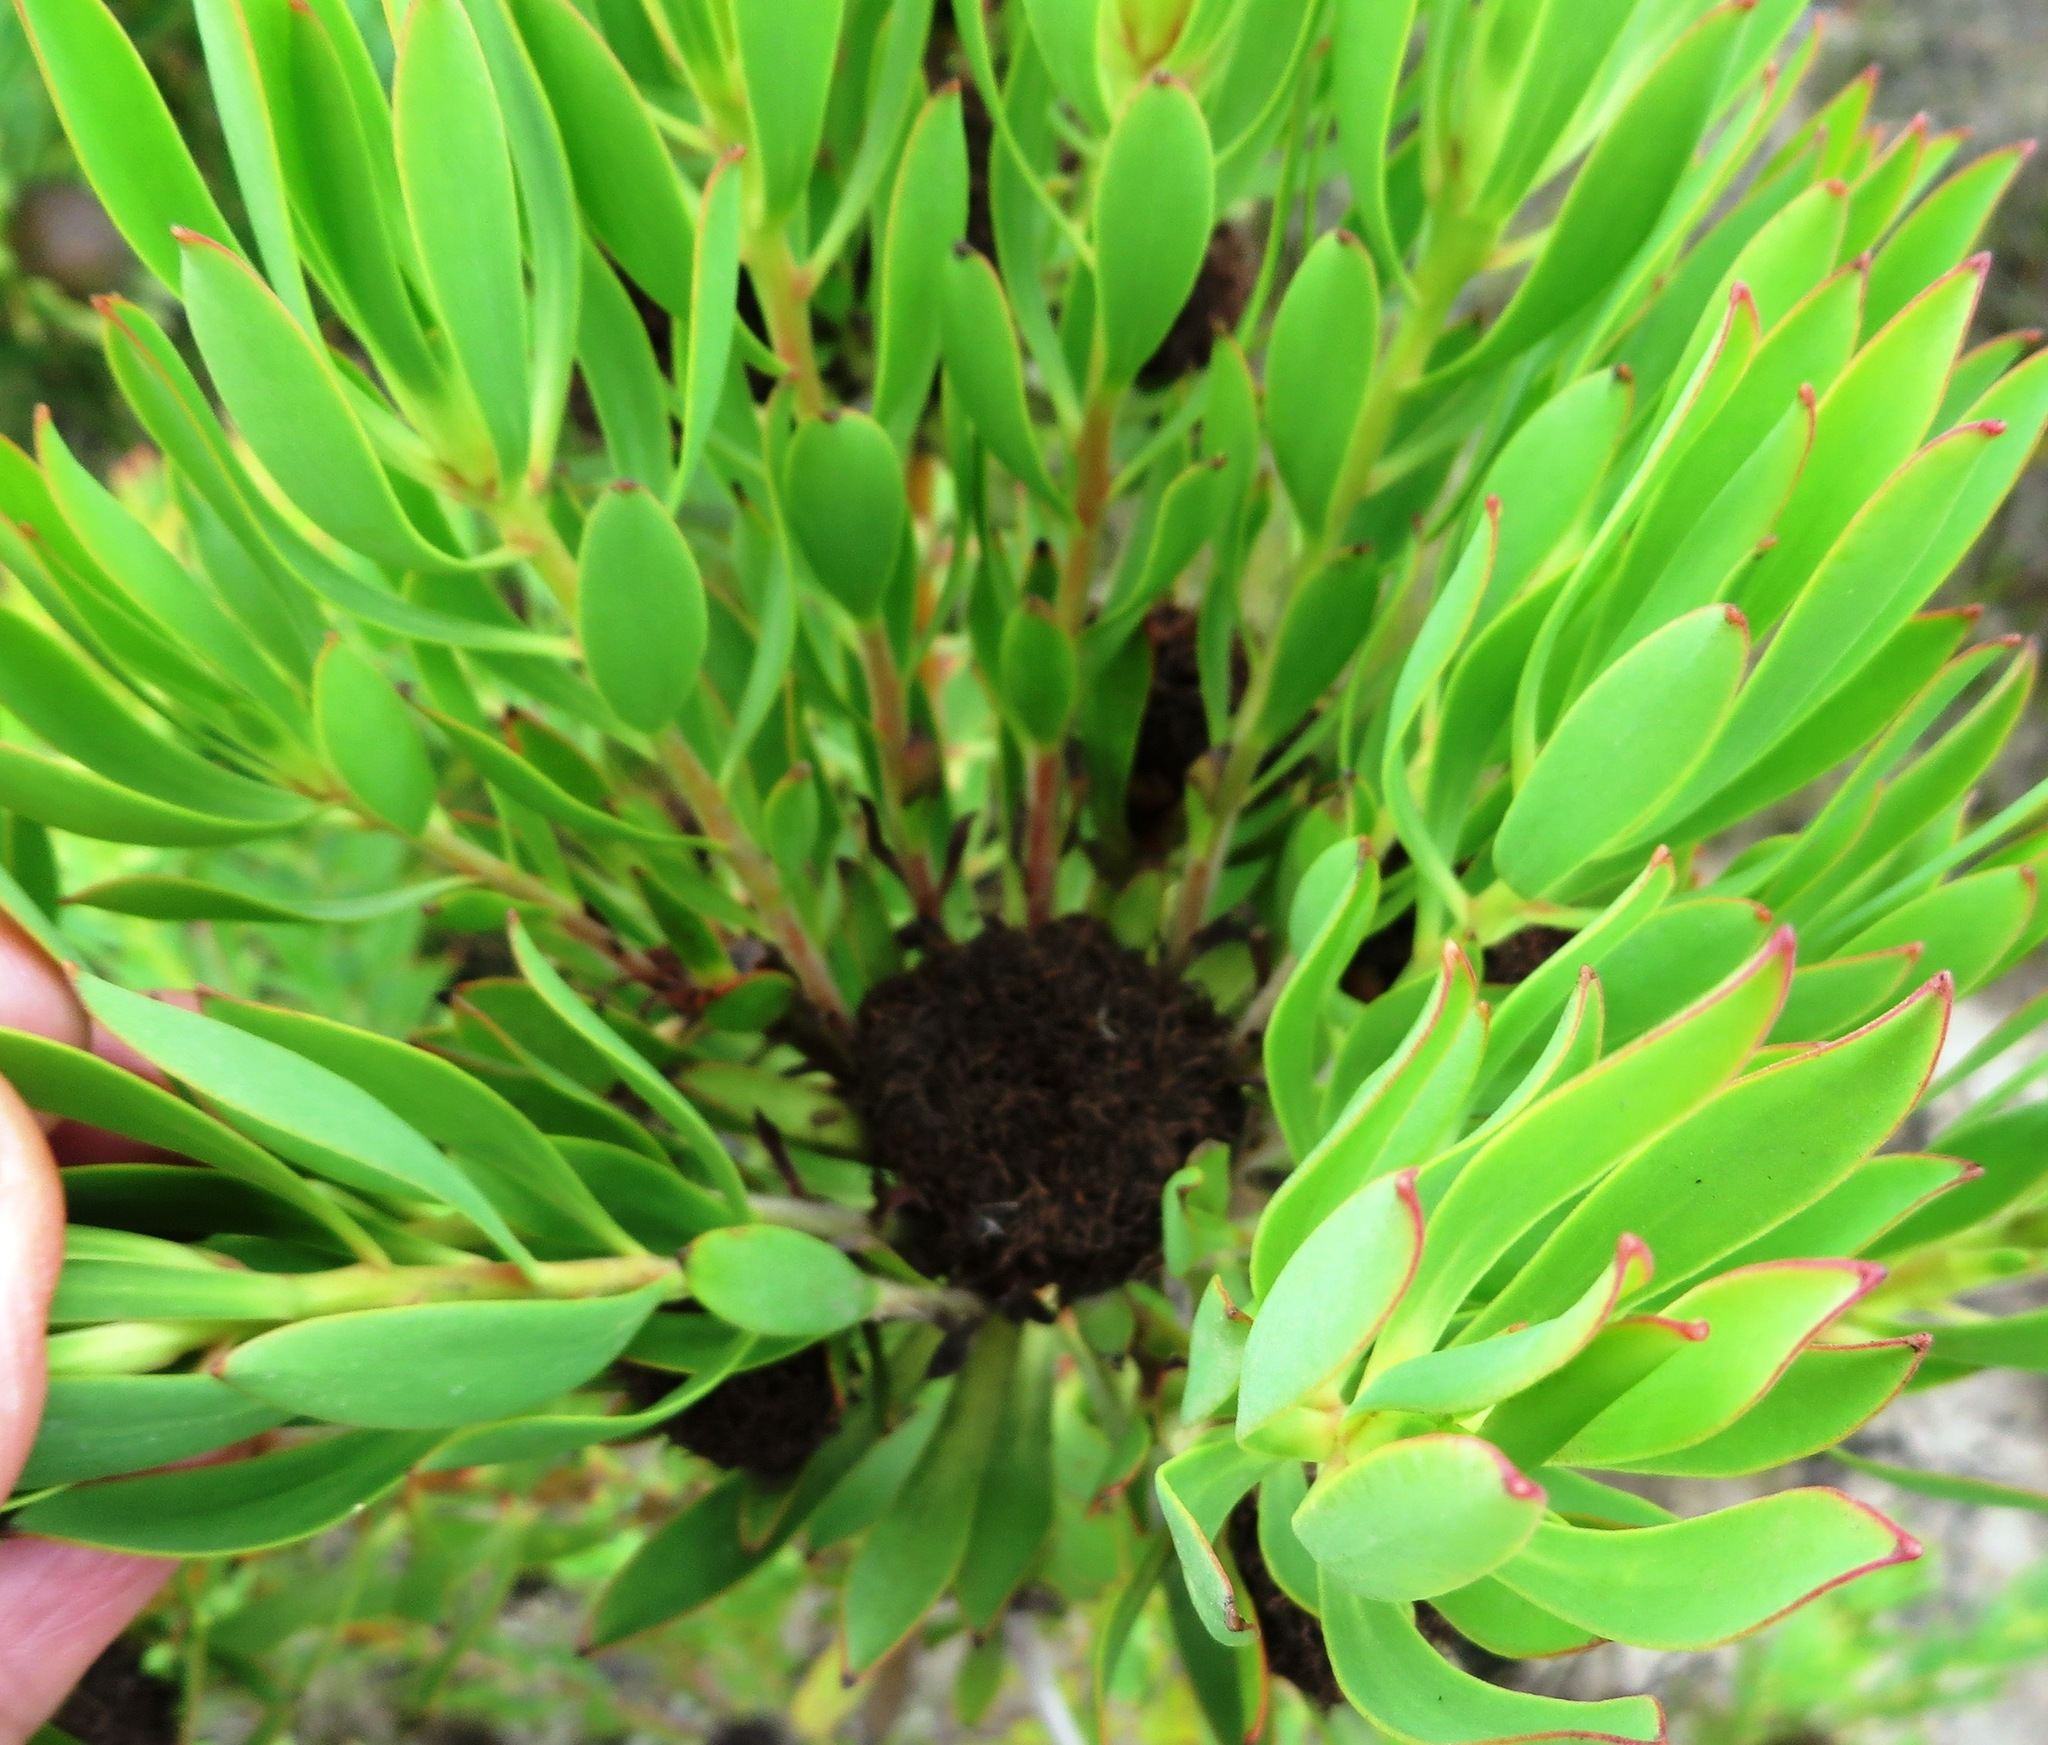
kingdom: Plantae
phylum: Tracheophyta
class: Magnoliopsida
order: Proteales
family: Proteaceae
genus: Leucadendron
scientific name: Leucadendron elimense
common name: Elim conebush
